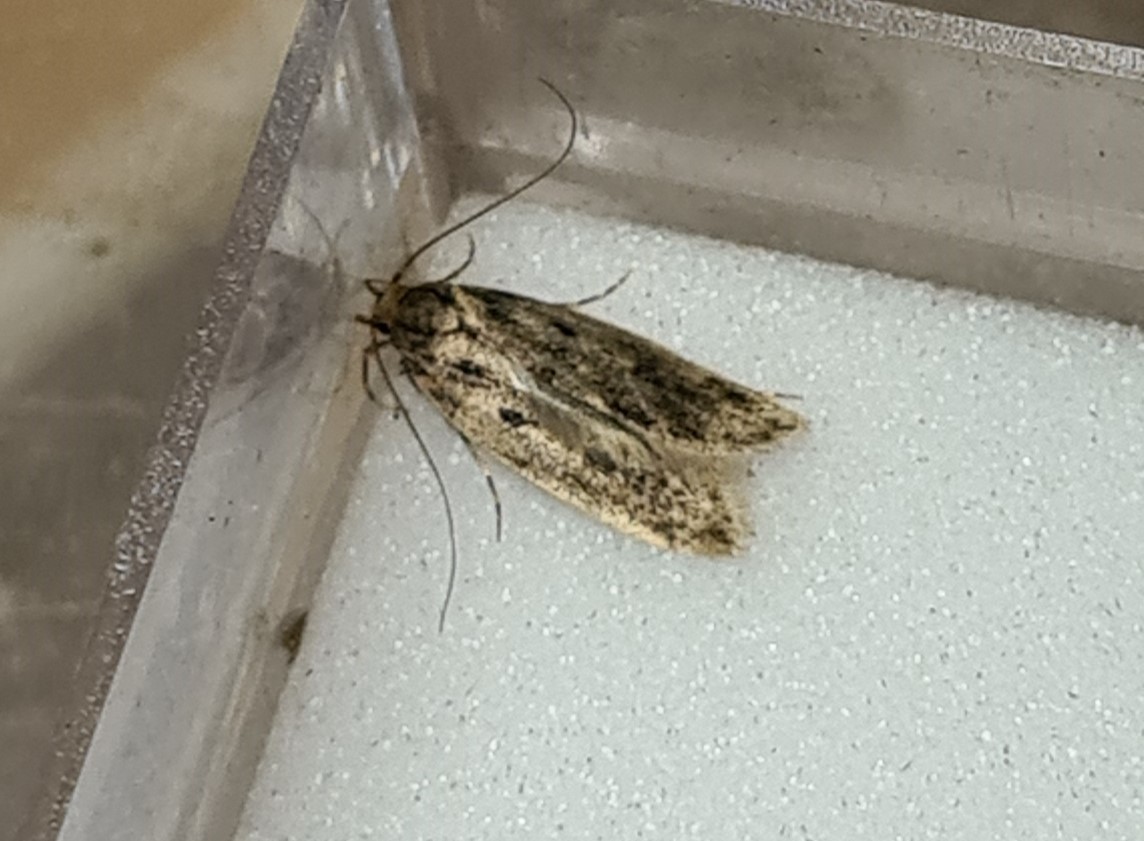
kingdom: Animalia
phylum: Arthropoda
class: Insecta
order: Lepidoptera
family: Oecophoridae
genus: Hofmannophila
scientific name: Hofmannophila pseudospretella
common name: Brown house moth
